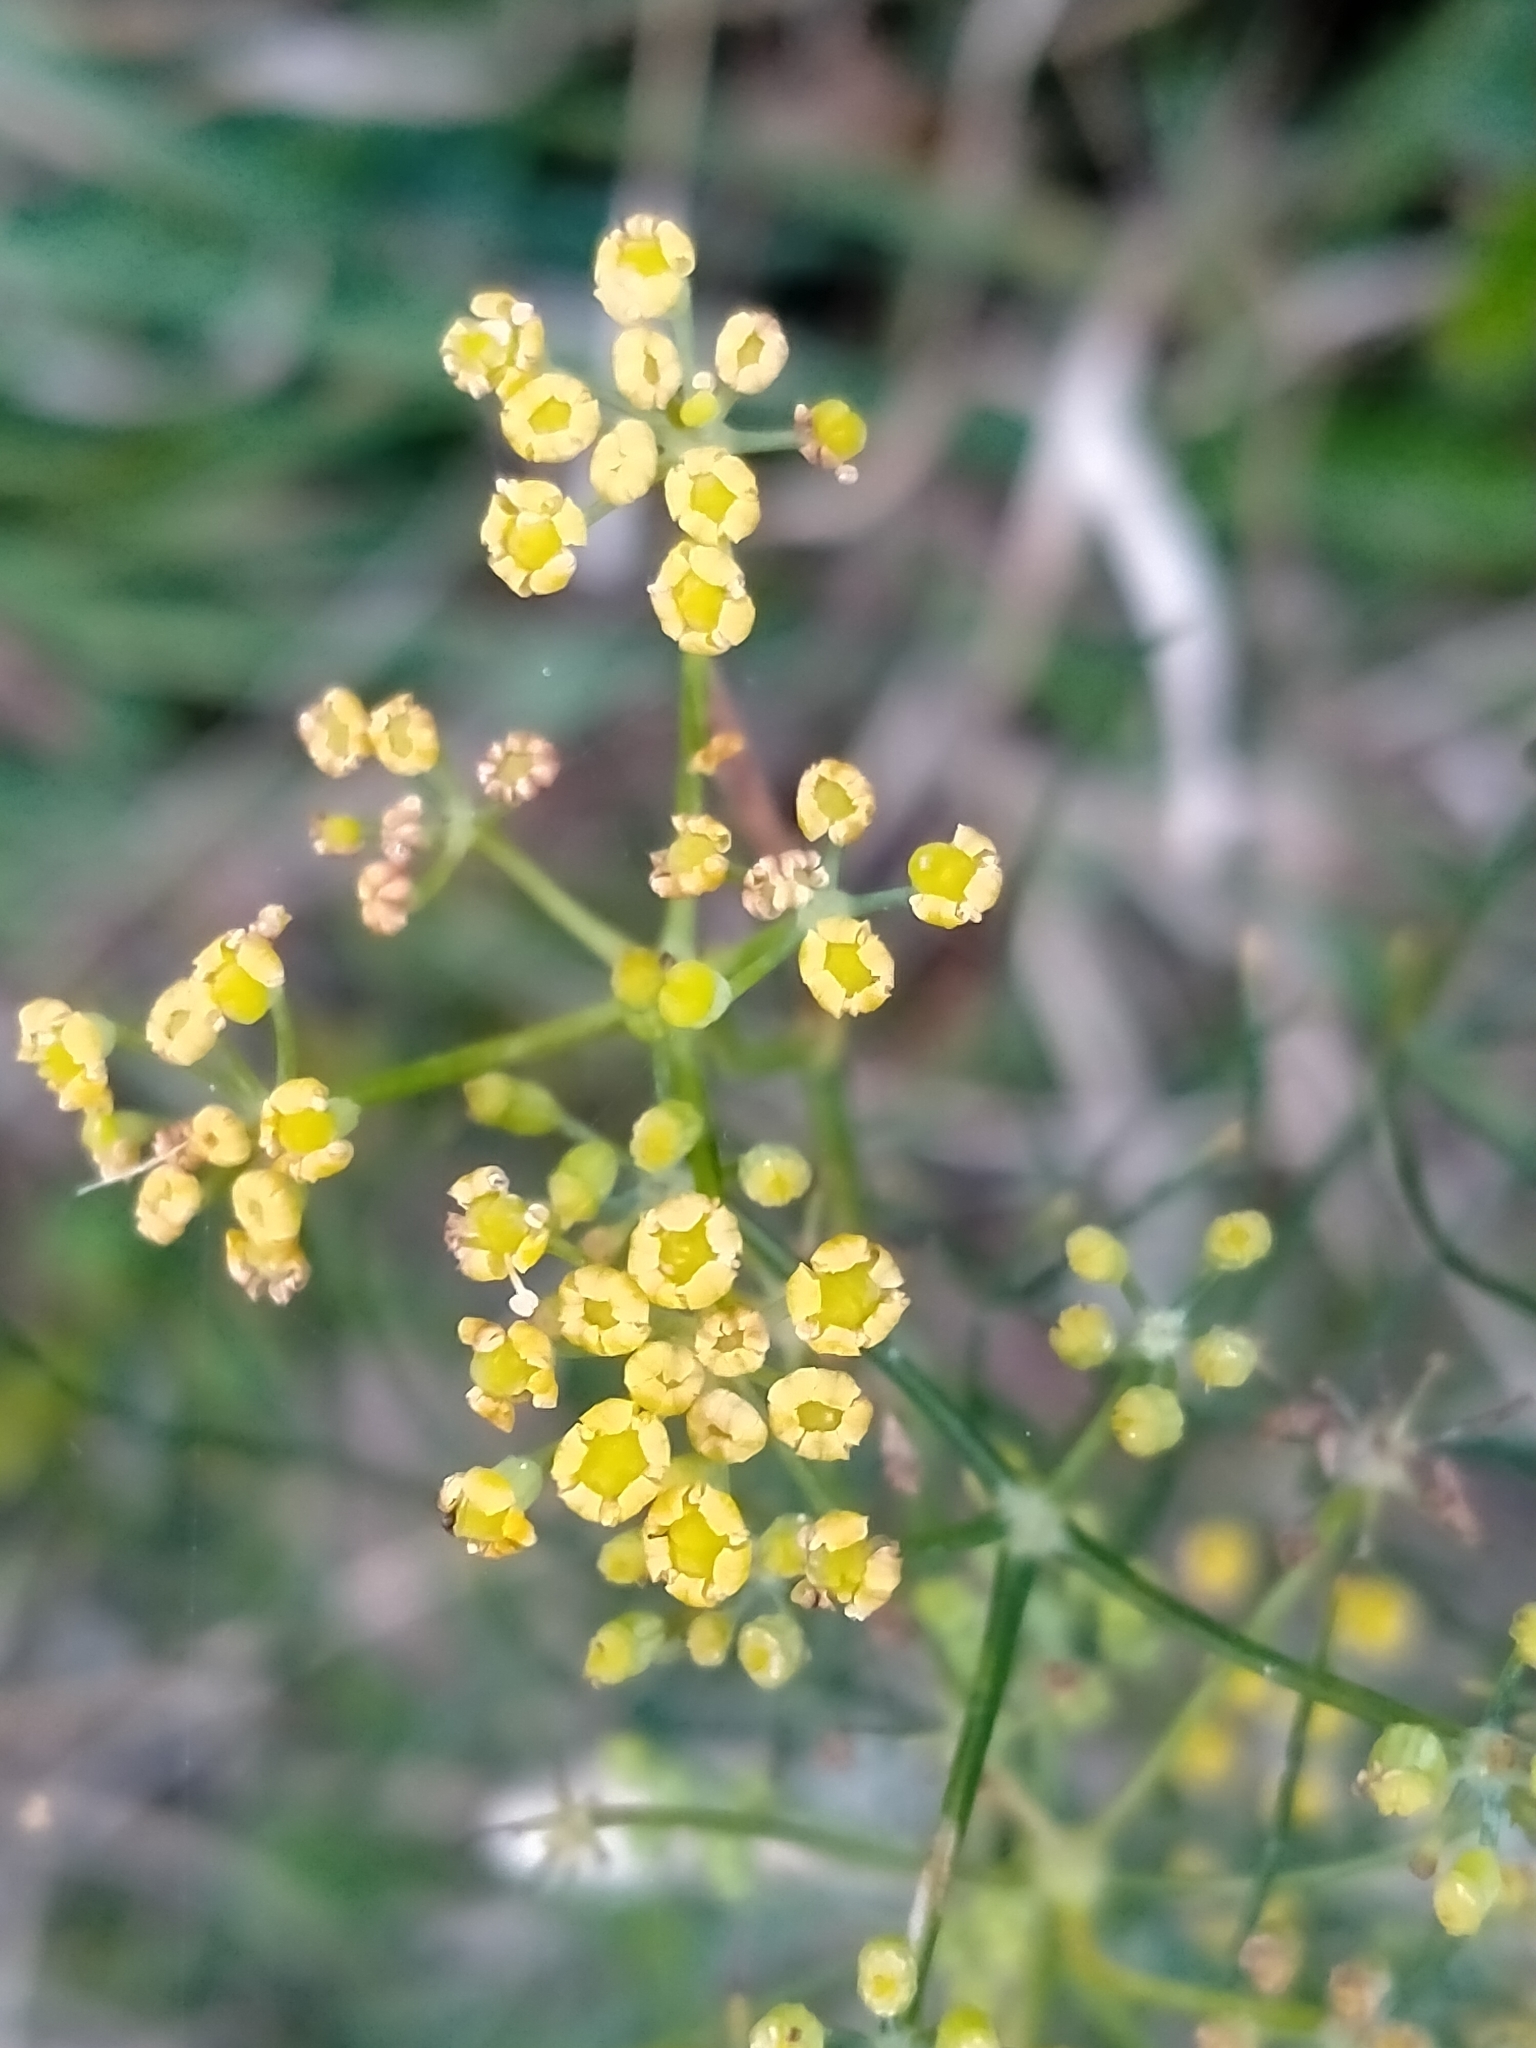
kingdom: Plantae
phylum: Tracheophyta
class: Magnoliopsida
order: Apiales
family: Apiaceae
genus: Foeniculum
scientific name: Foeniculum vulgare
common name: Fennel
